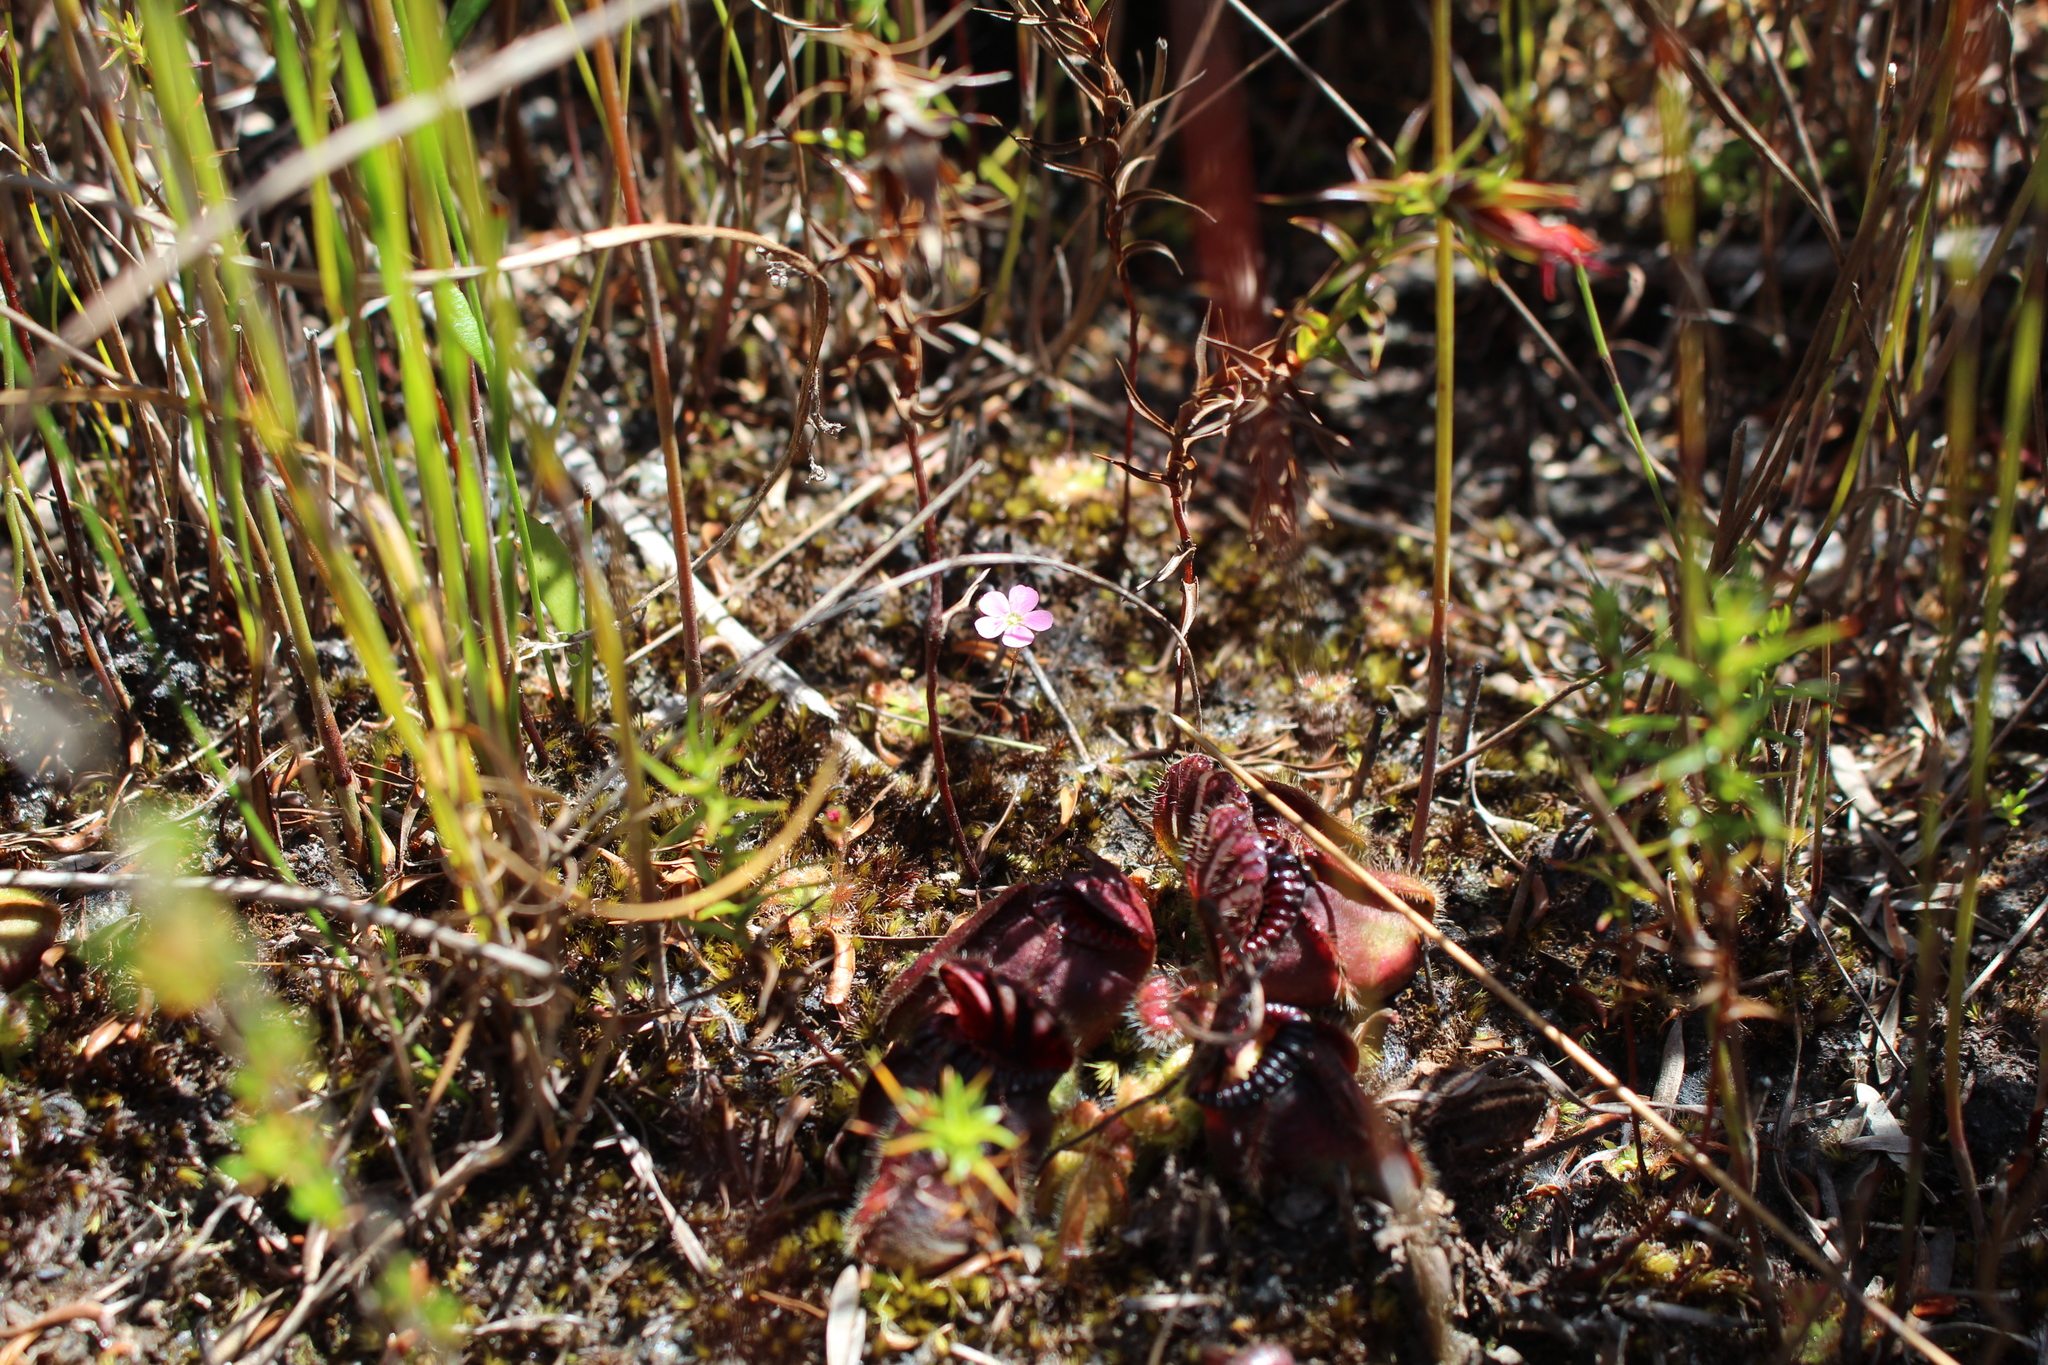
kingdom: Plantae
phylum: Tracheophyta
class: Magnoliopsida
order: Oxalidales
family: Cephalotaceae
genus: Cephalotus
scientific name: Cephalotus follicularis
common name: Australian pitcher plant
